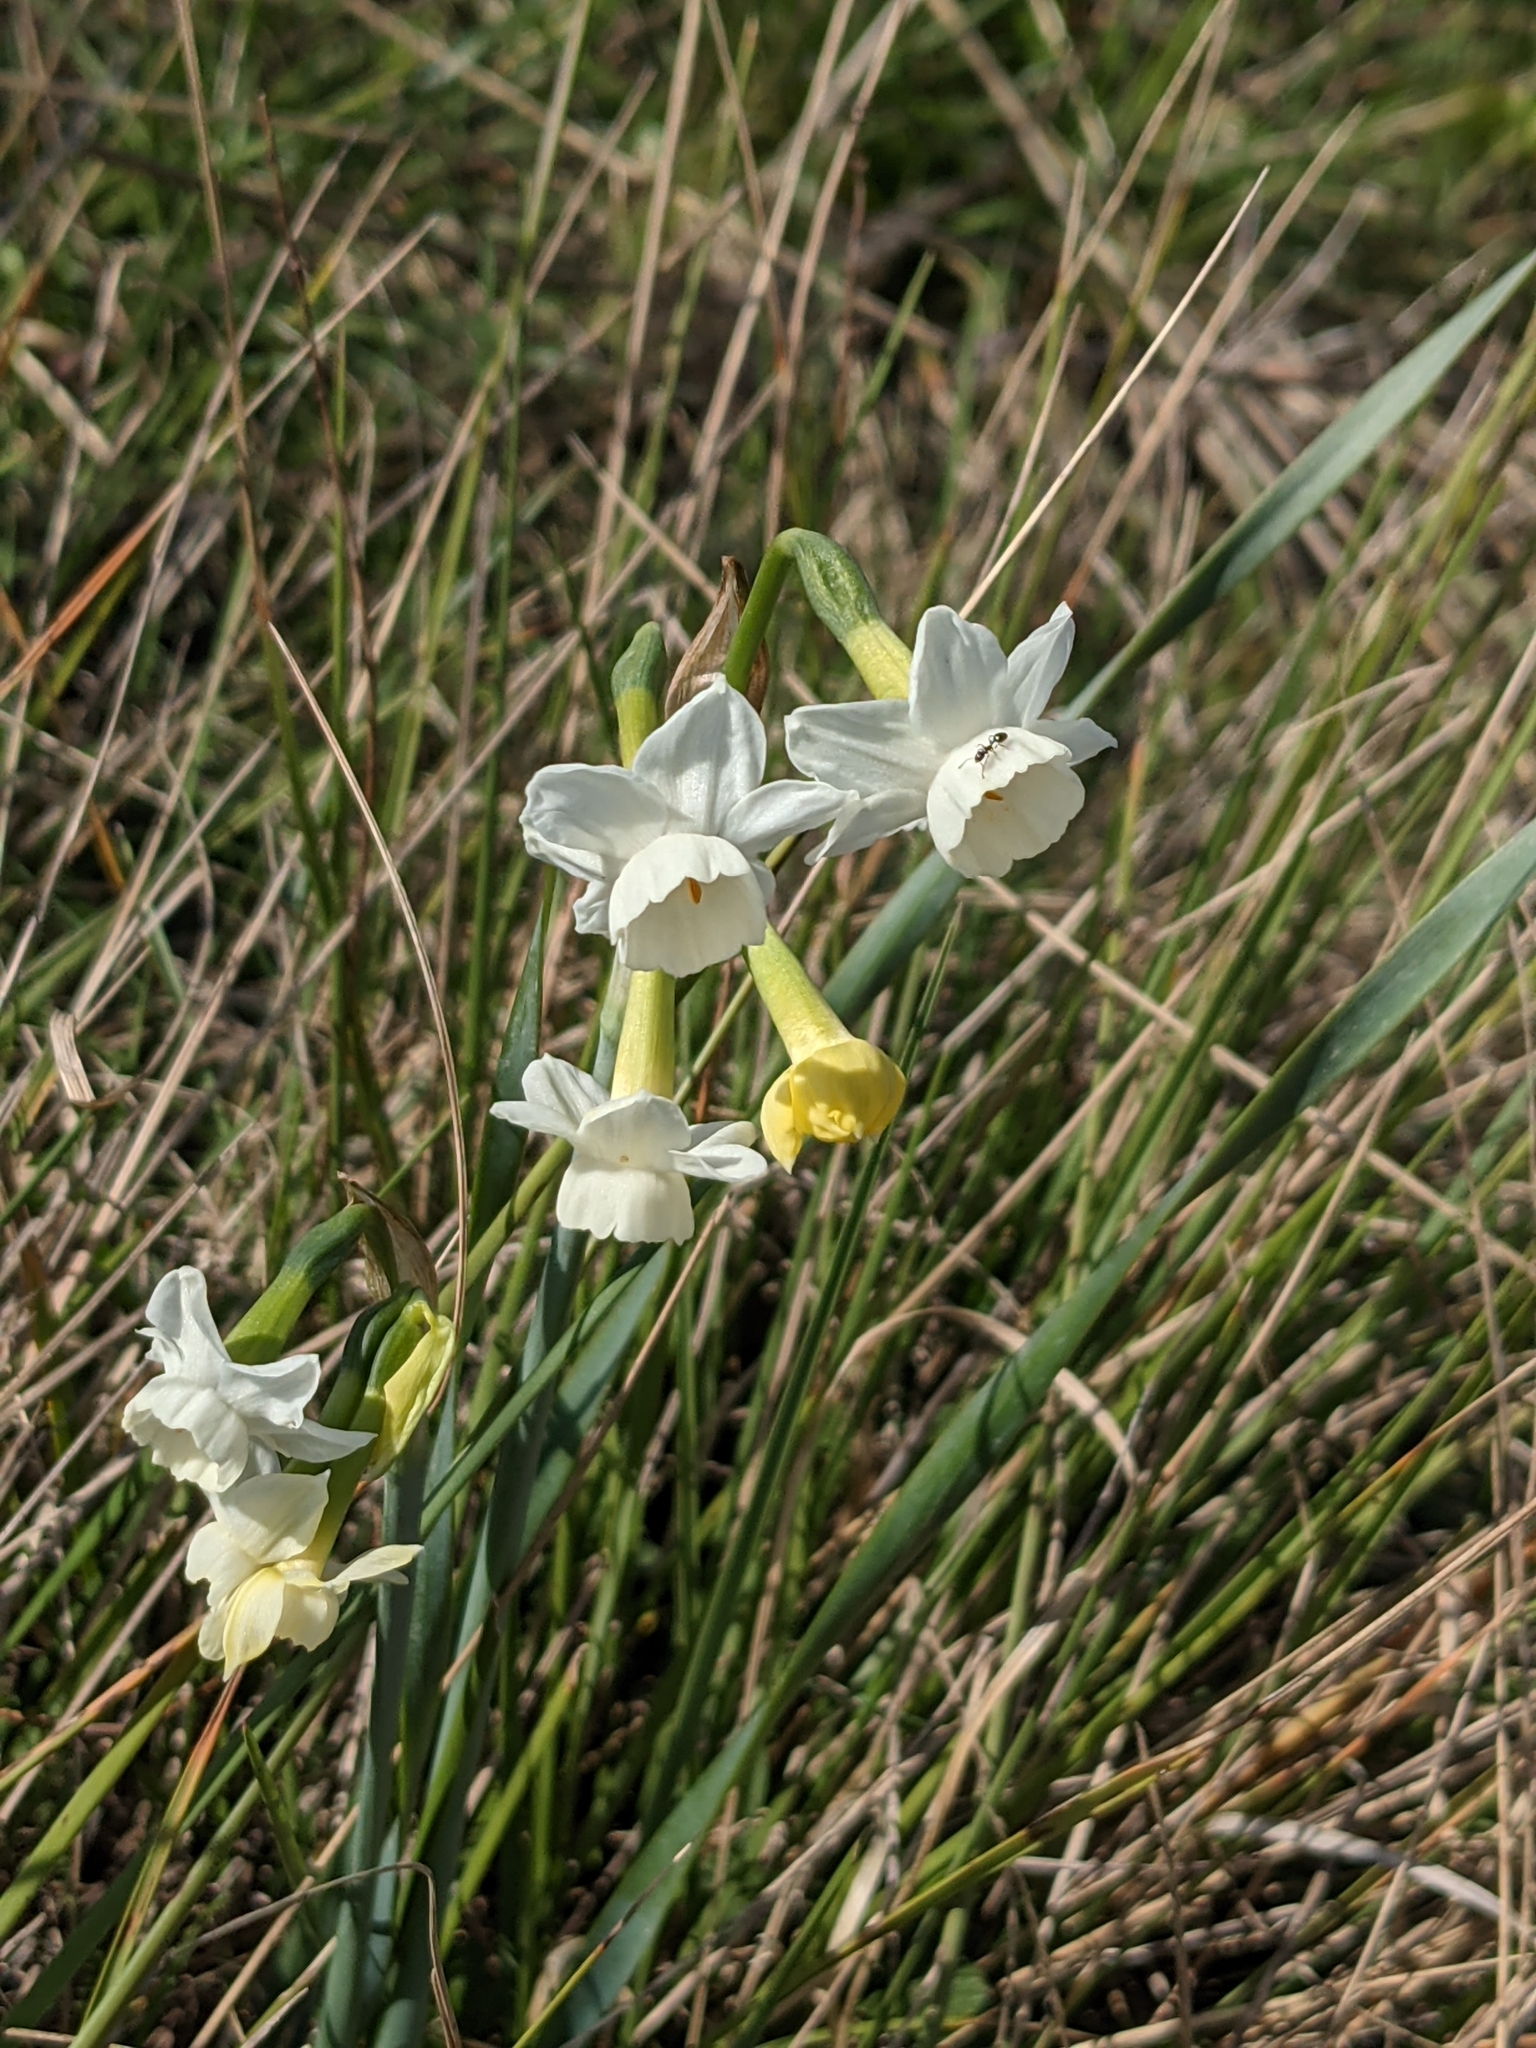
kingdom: Plantae
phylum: Tracheophyta
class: Liliopsida
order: Asparagales
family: Amaryllidaceae
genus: Narcissus
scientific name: Narcissus dubius
